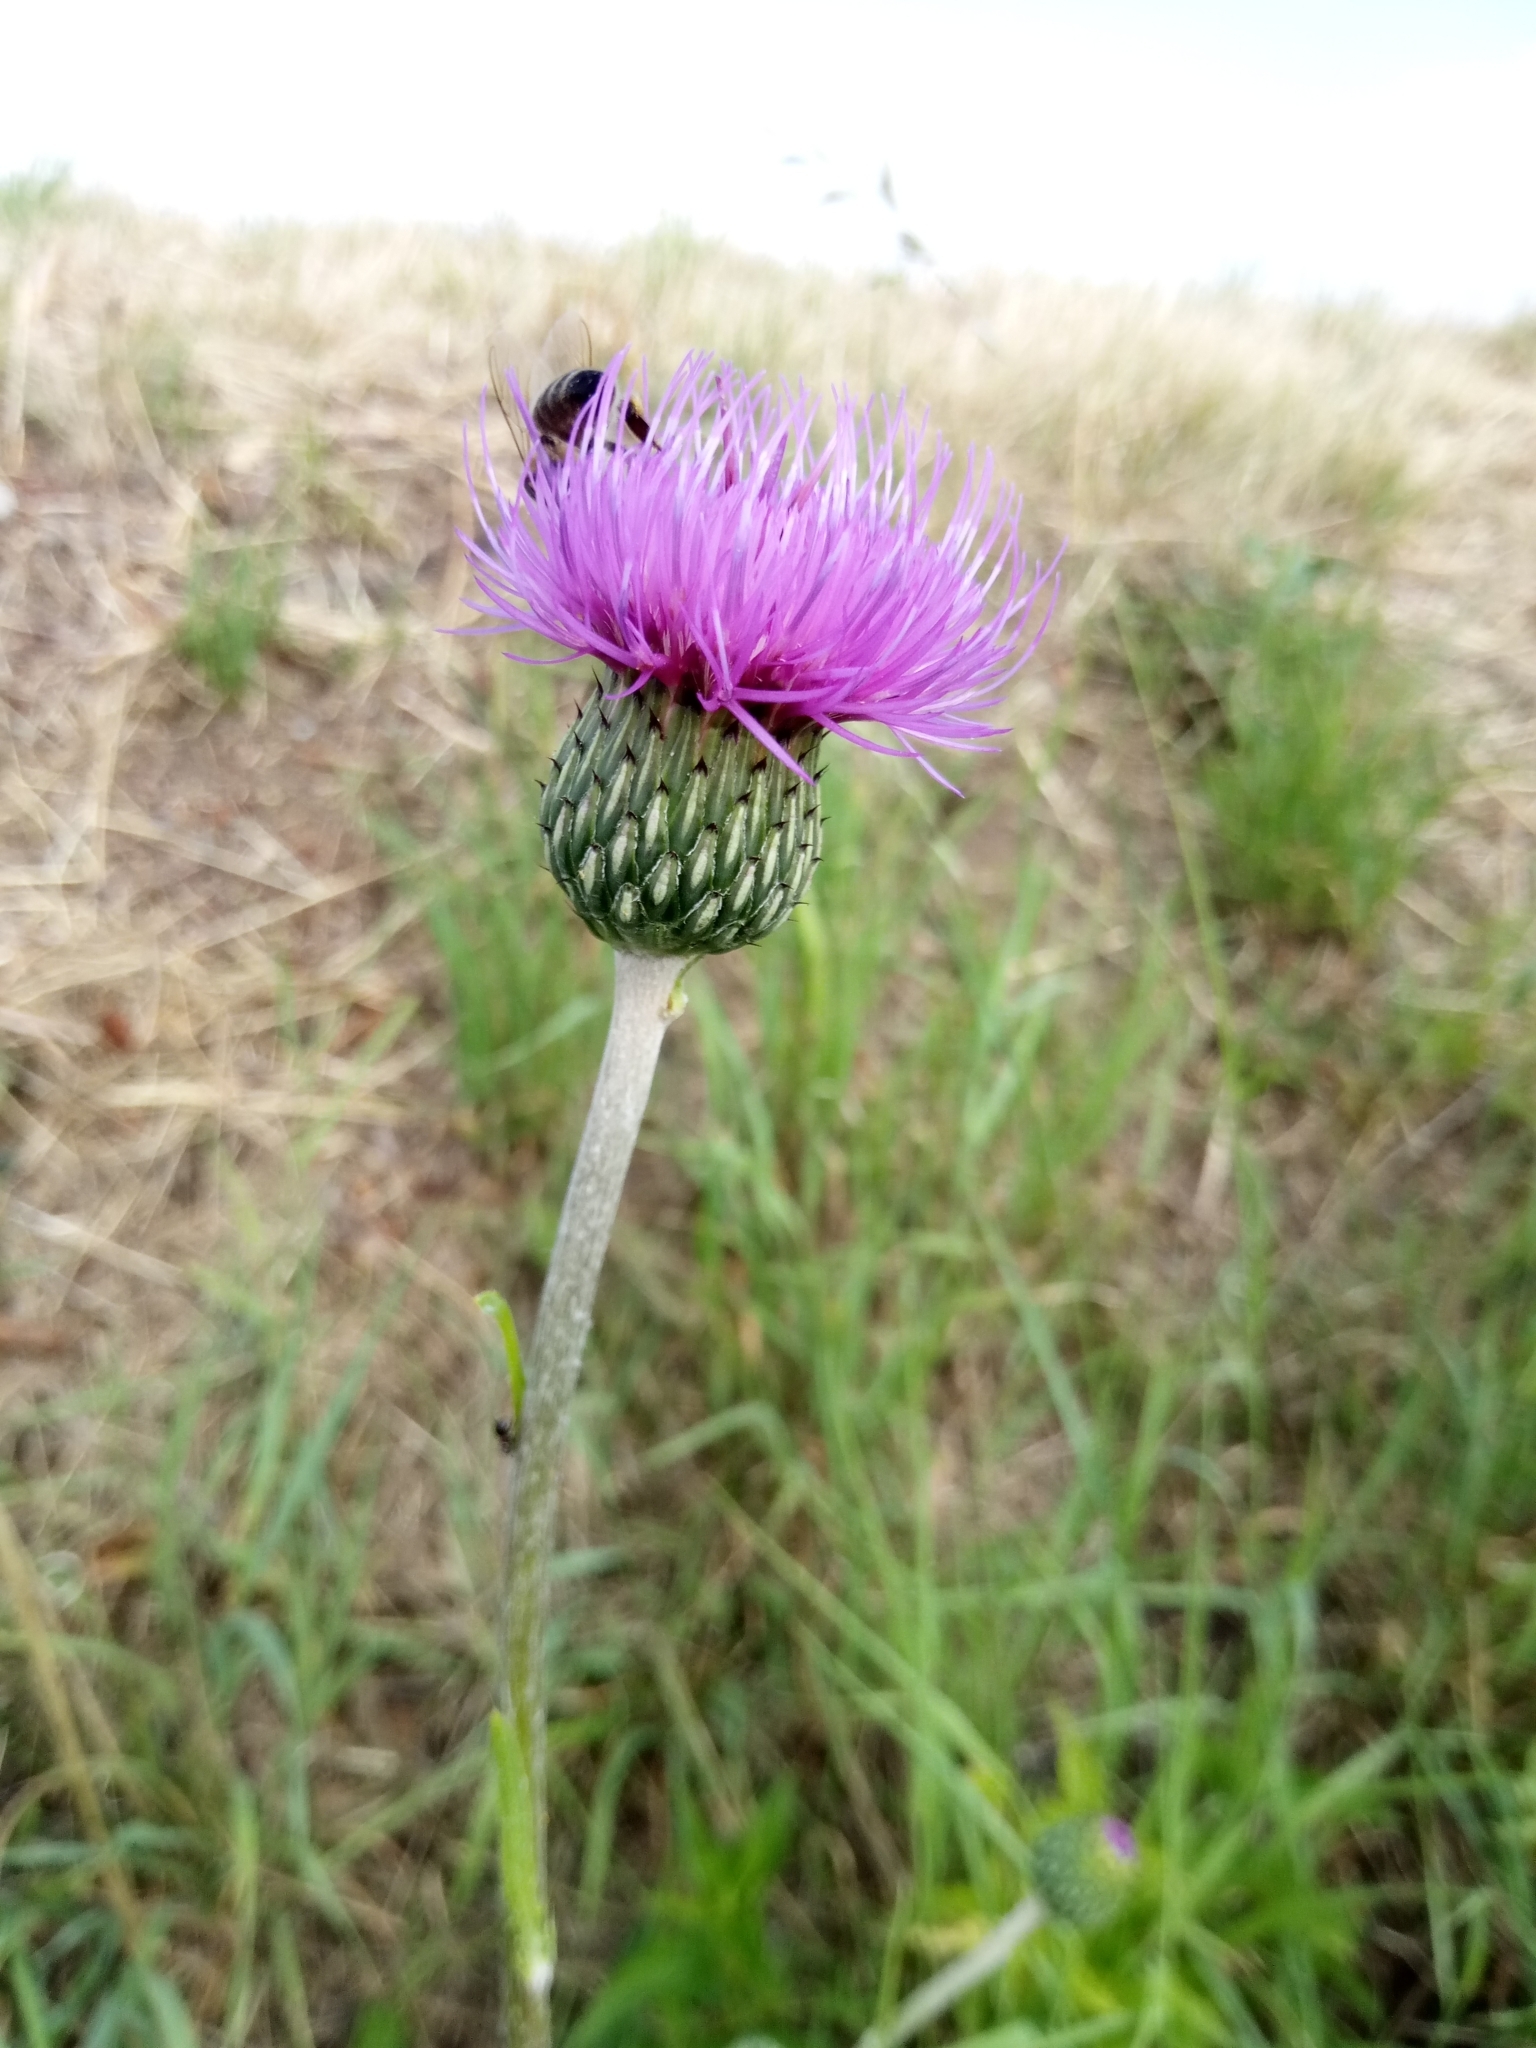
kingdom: Plantae
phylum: Tracheophyta
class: Magnoliopsida
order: Asterales
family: Asteraceae
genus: Cirsium
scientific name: Cirsium canum
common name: Queen anne's thistle
